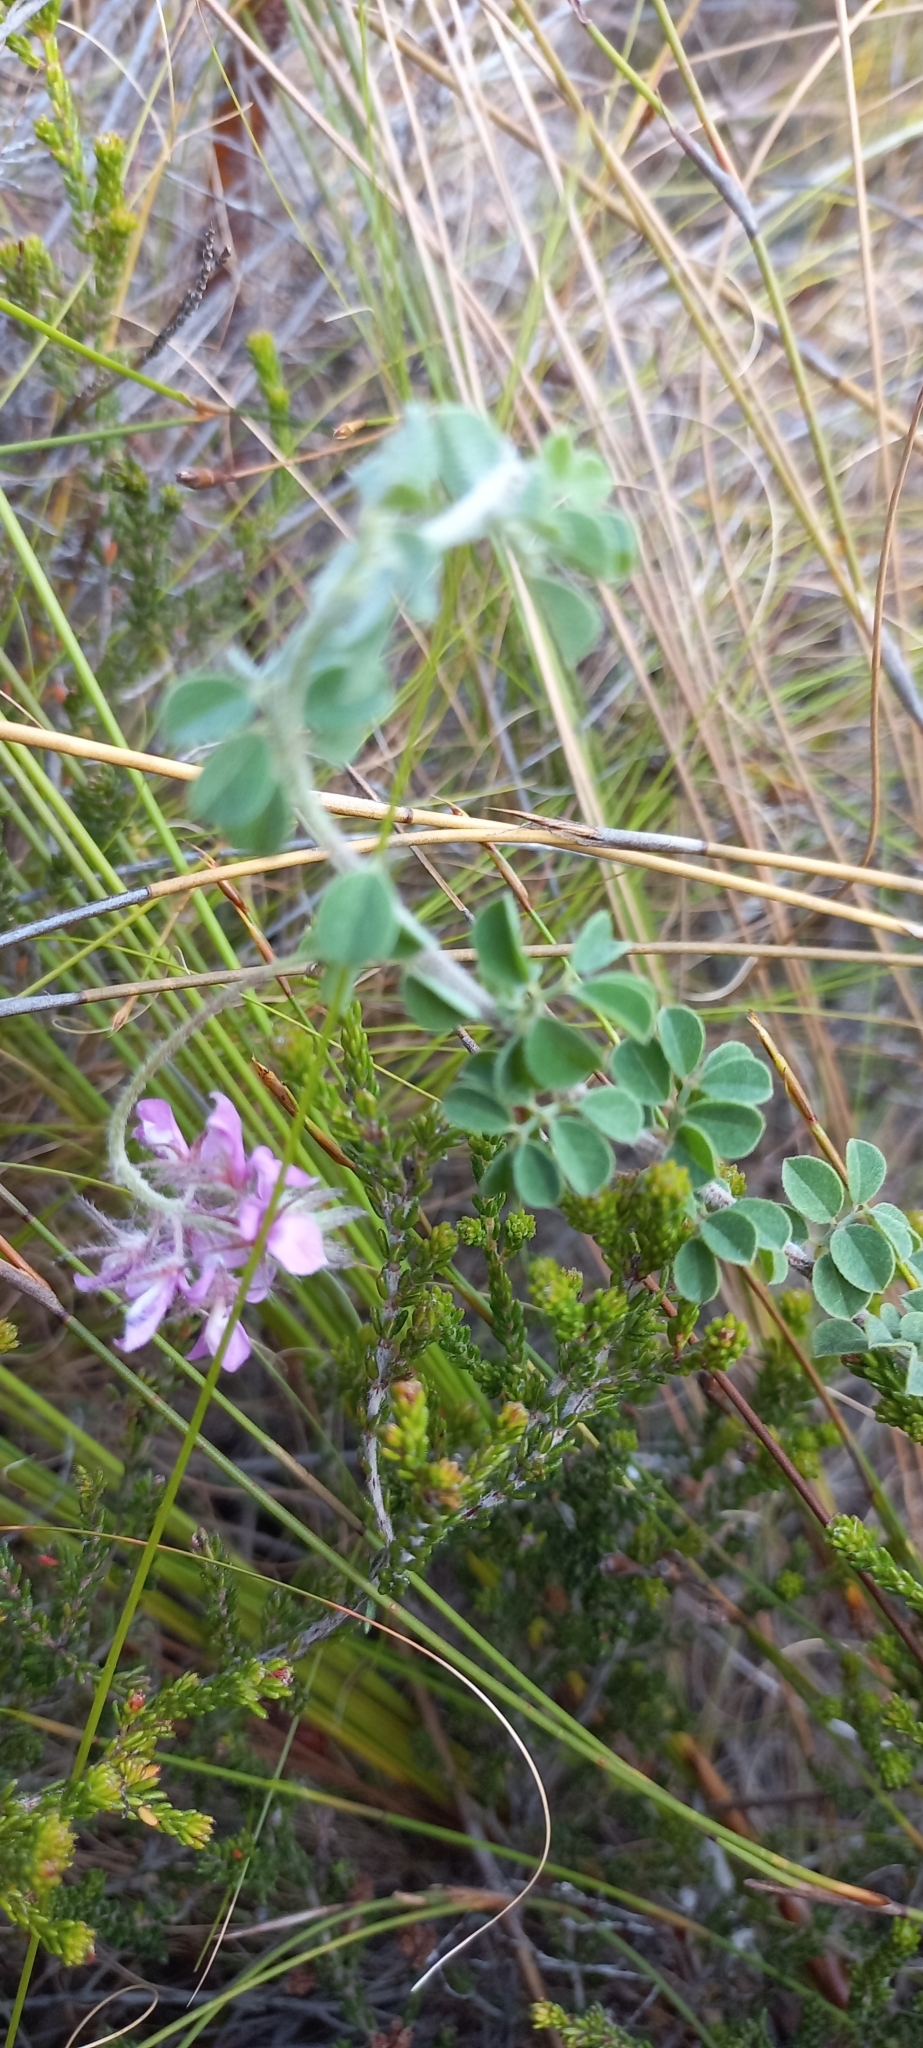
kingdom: Plantae
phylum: Tracheophyta
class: Magnoliopsida
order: Fabales
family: Fabaceae
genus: Indigofera
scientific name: Indigofera alopecuroides
